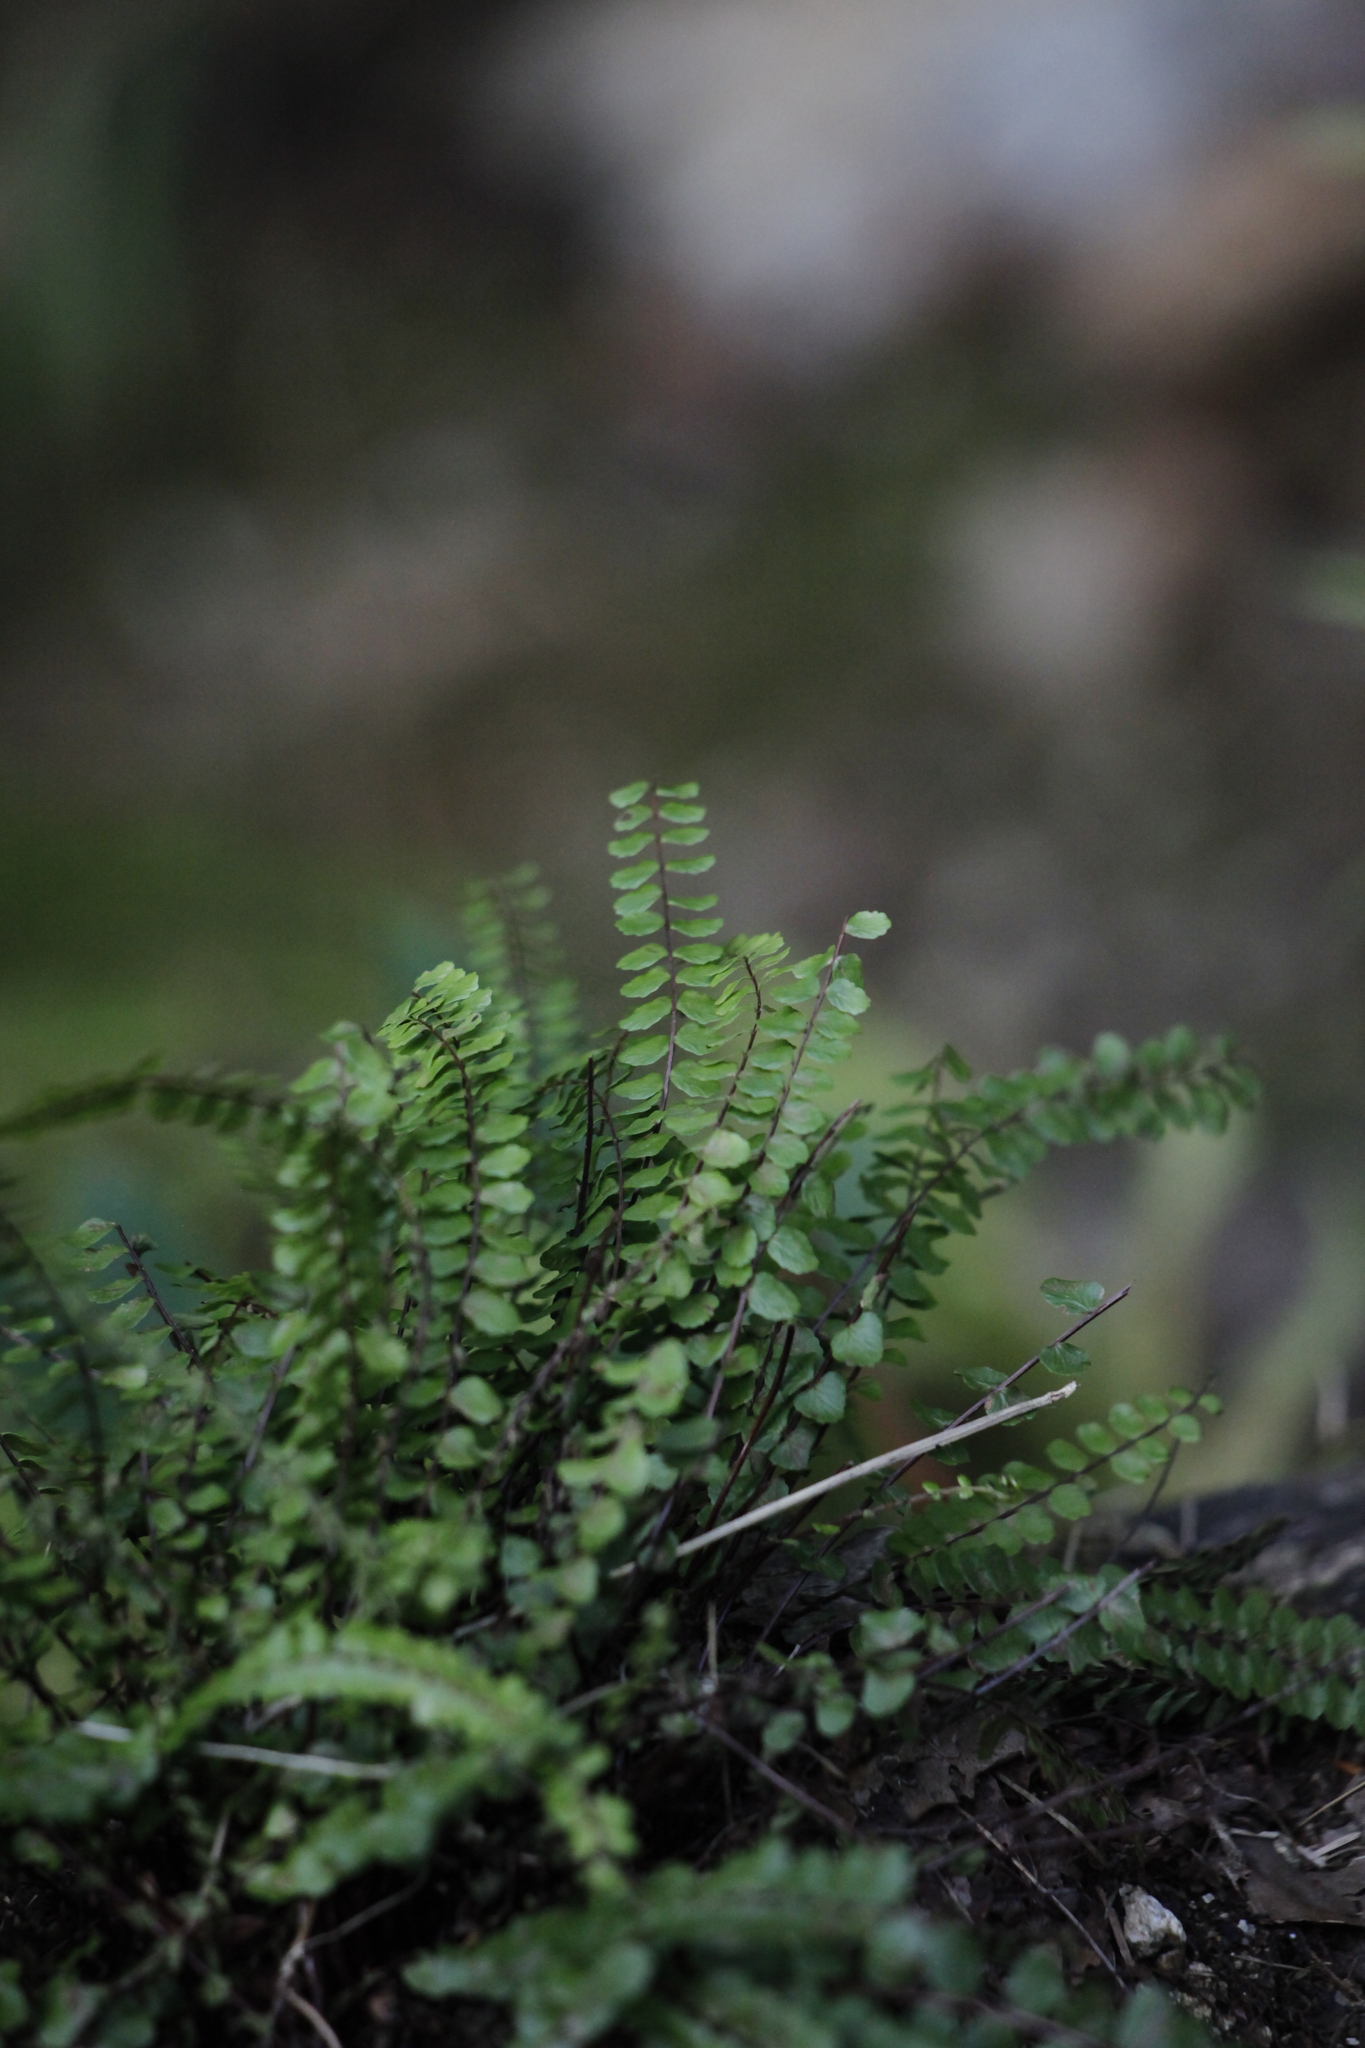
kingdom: Plantae
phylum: Tracheophyta
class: Polypodiopsida
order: Polypodiales
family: Aspleniaceae
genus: Asplenium
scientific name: Asplenium trichomanes
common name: Maidenhair spleenwort
